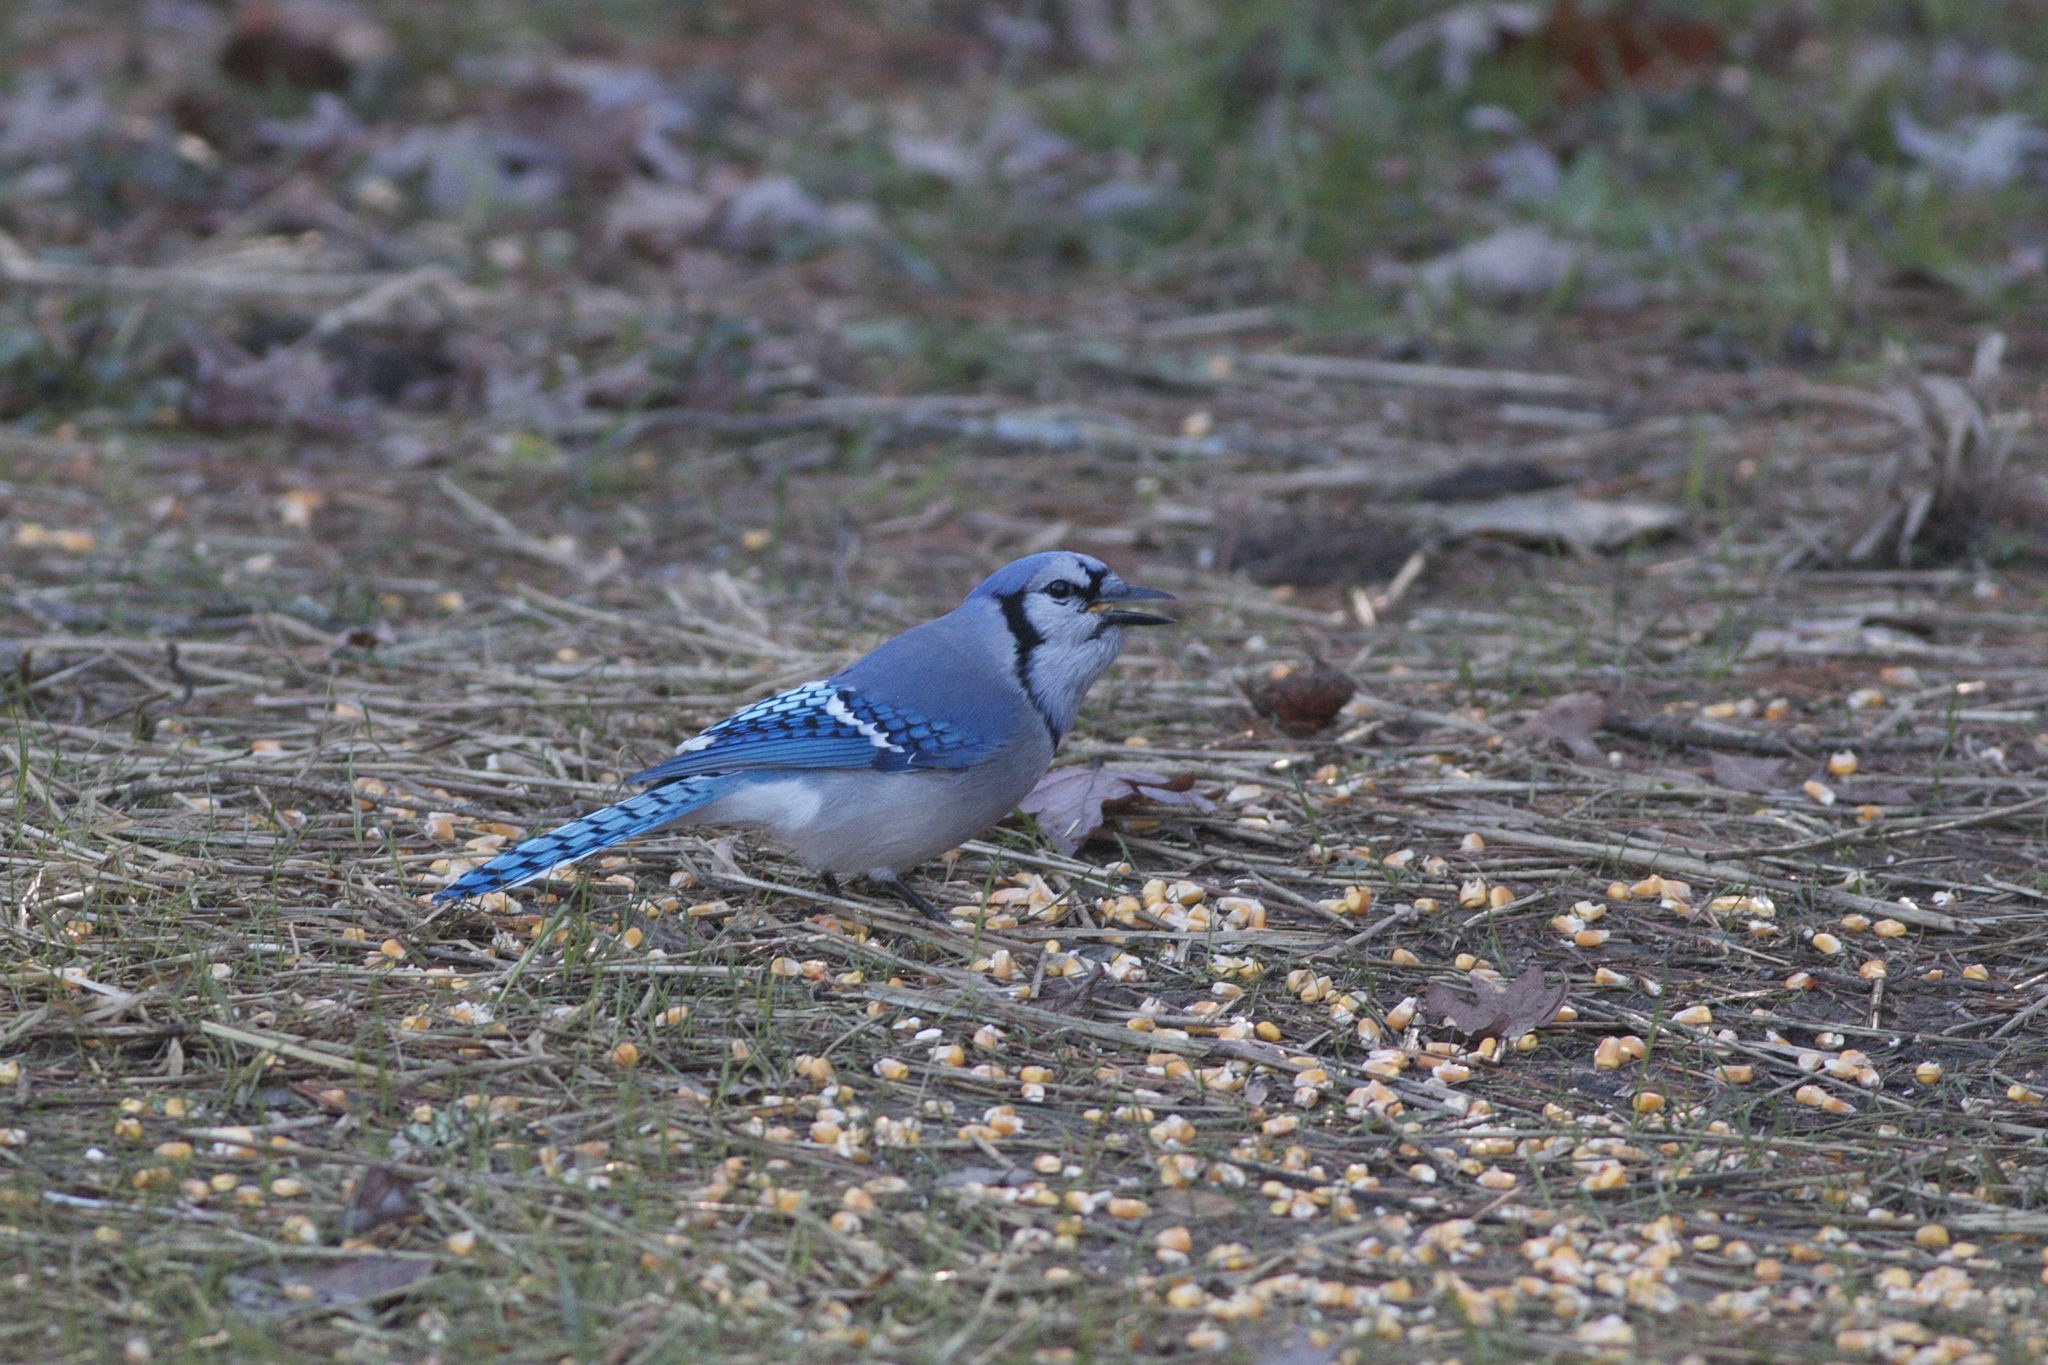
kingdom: Animalia
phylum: Chordata
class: Aves
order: Passeriformes
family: Corvidae
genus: Cyanocitta
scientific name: Cyanocitta cristata
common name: Blue jay
